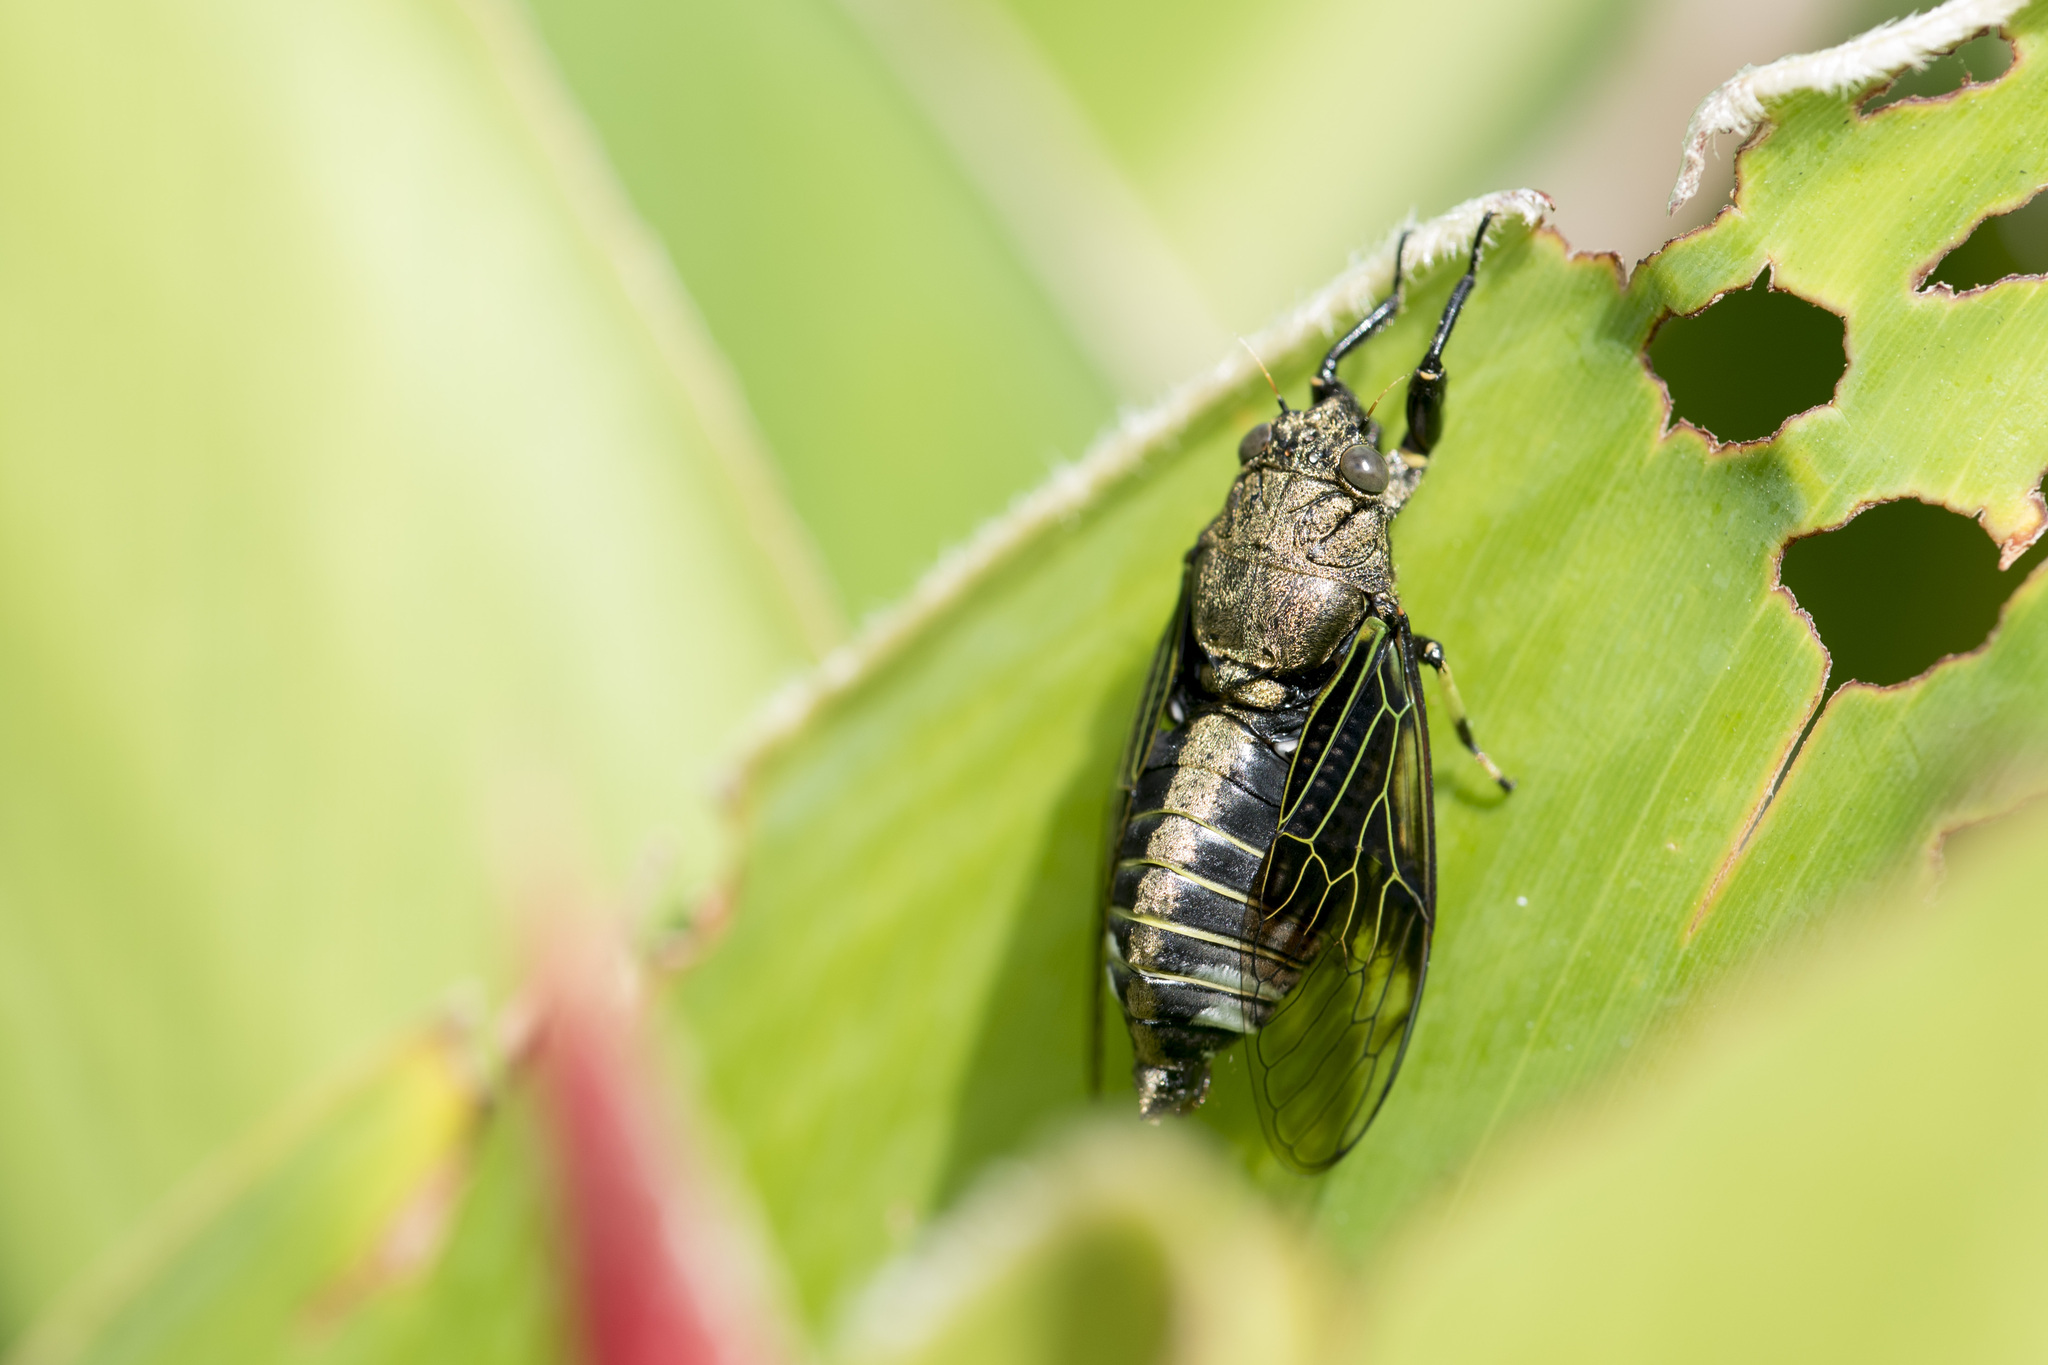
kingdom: Animalia
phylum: Arthropoda
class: Insecta
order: Hemiptera
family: Cicadidae
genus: Mogannia
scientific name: Mogannia formosana
